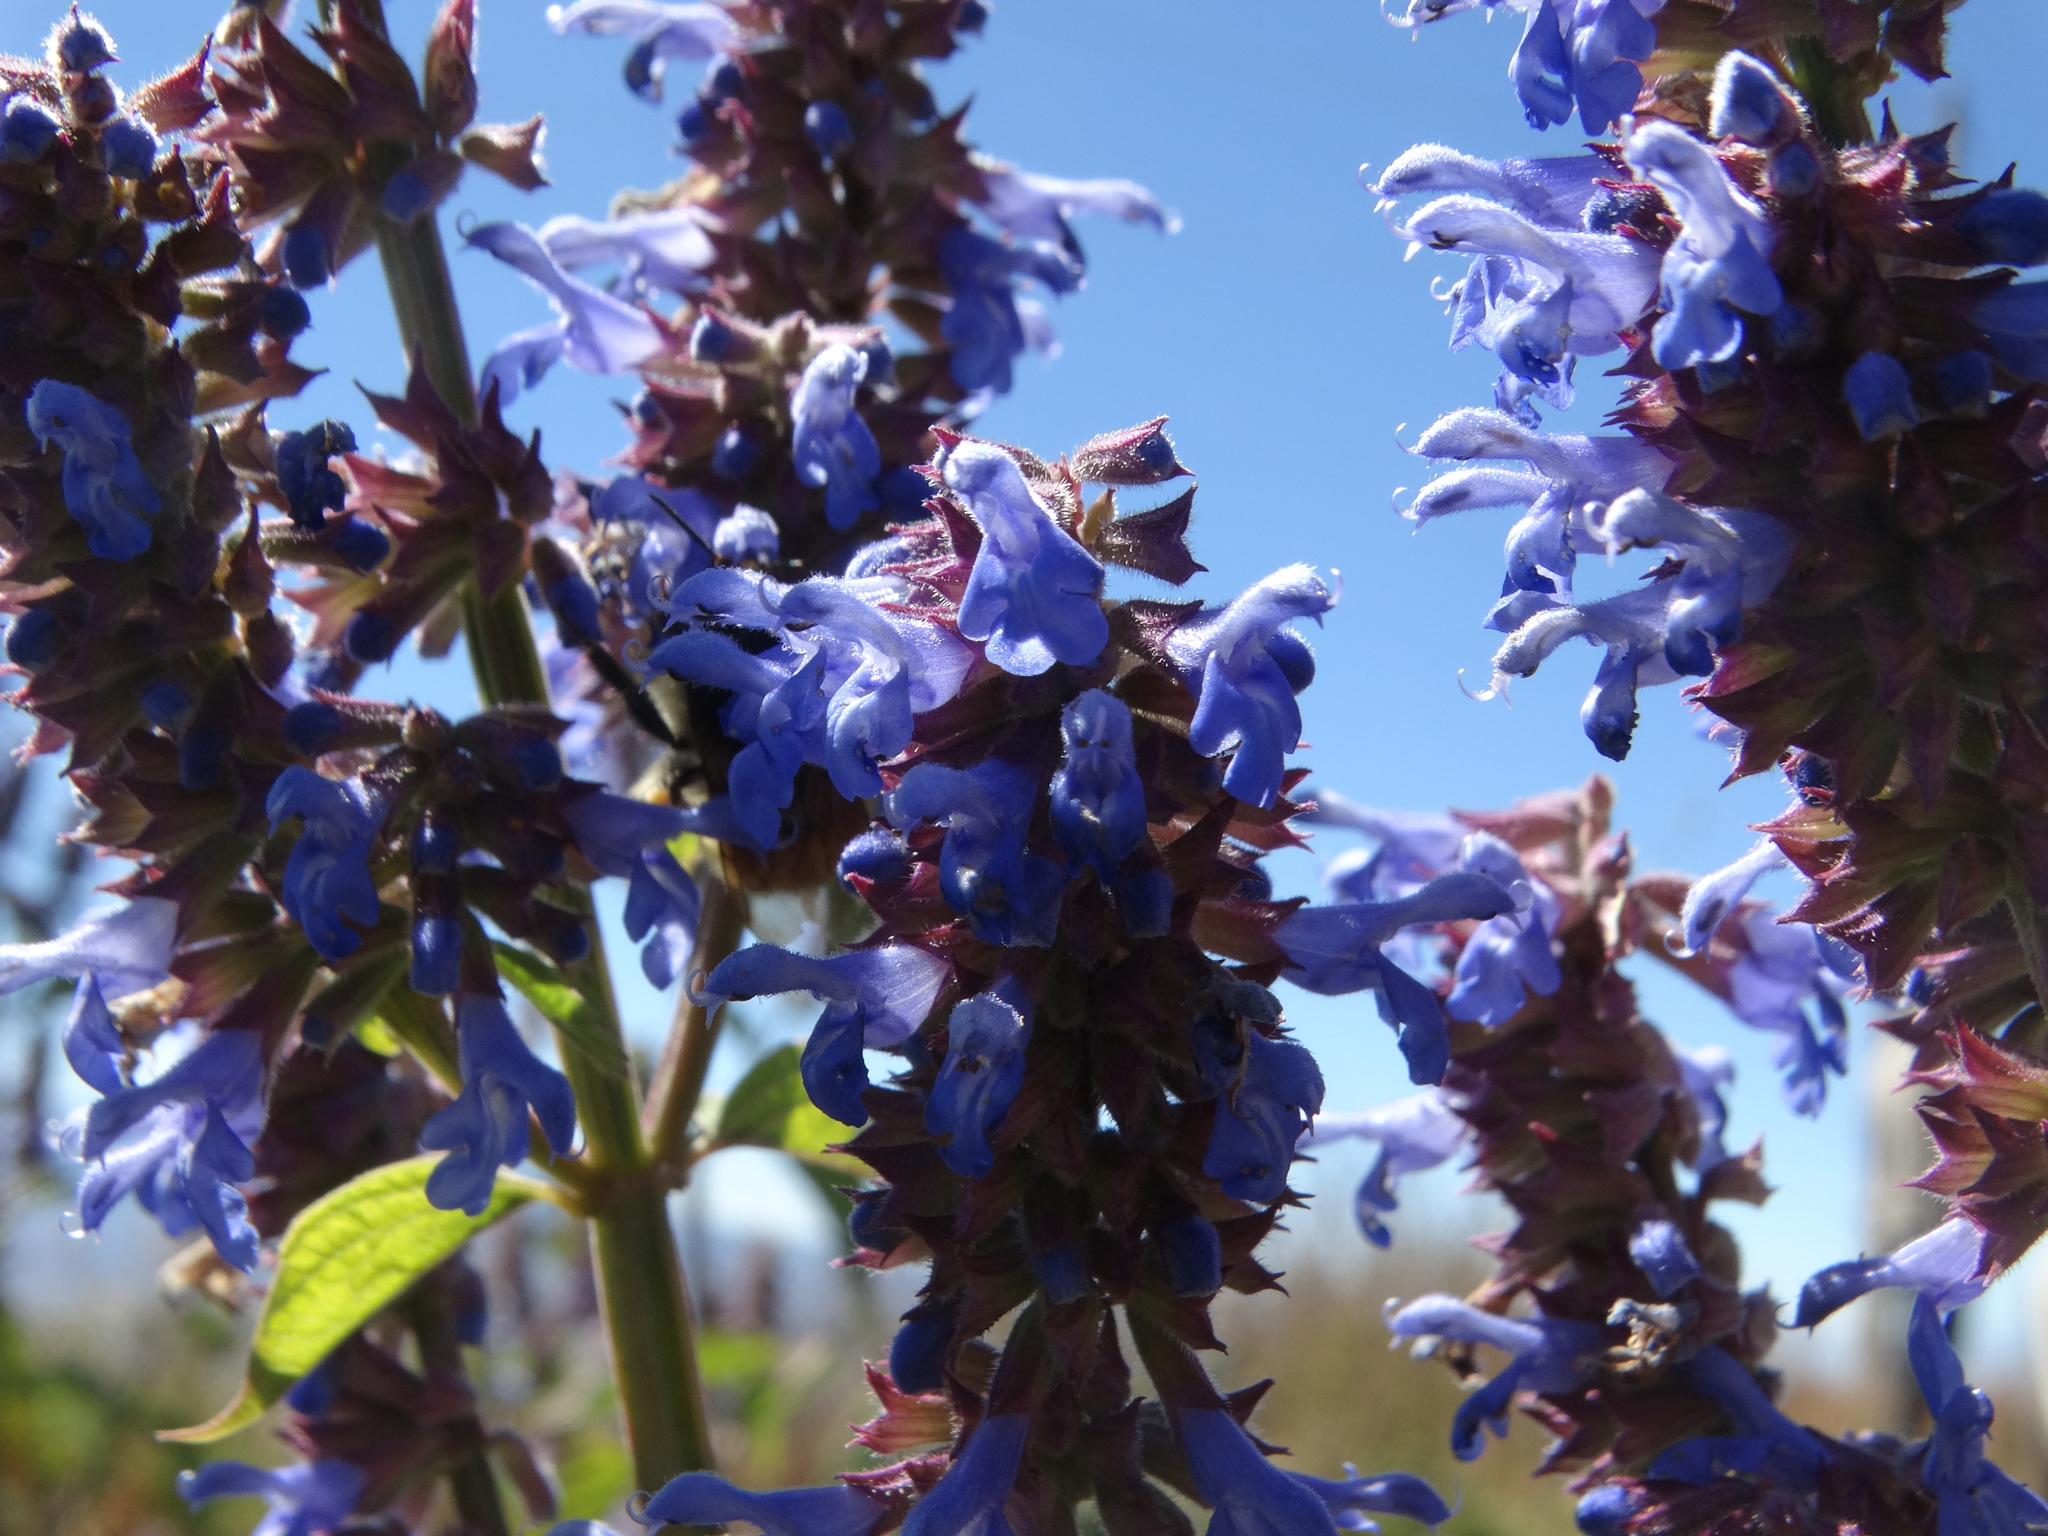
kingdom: Plantae
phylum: Tracheophyta
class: Magnoliopsida
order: Lamiales
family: Lamiaceae
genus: Salvia
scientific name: Salvia polystachia
